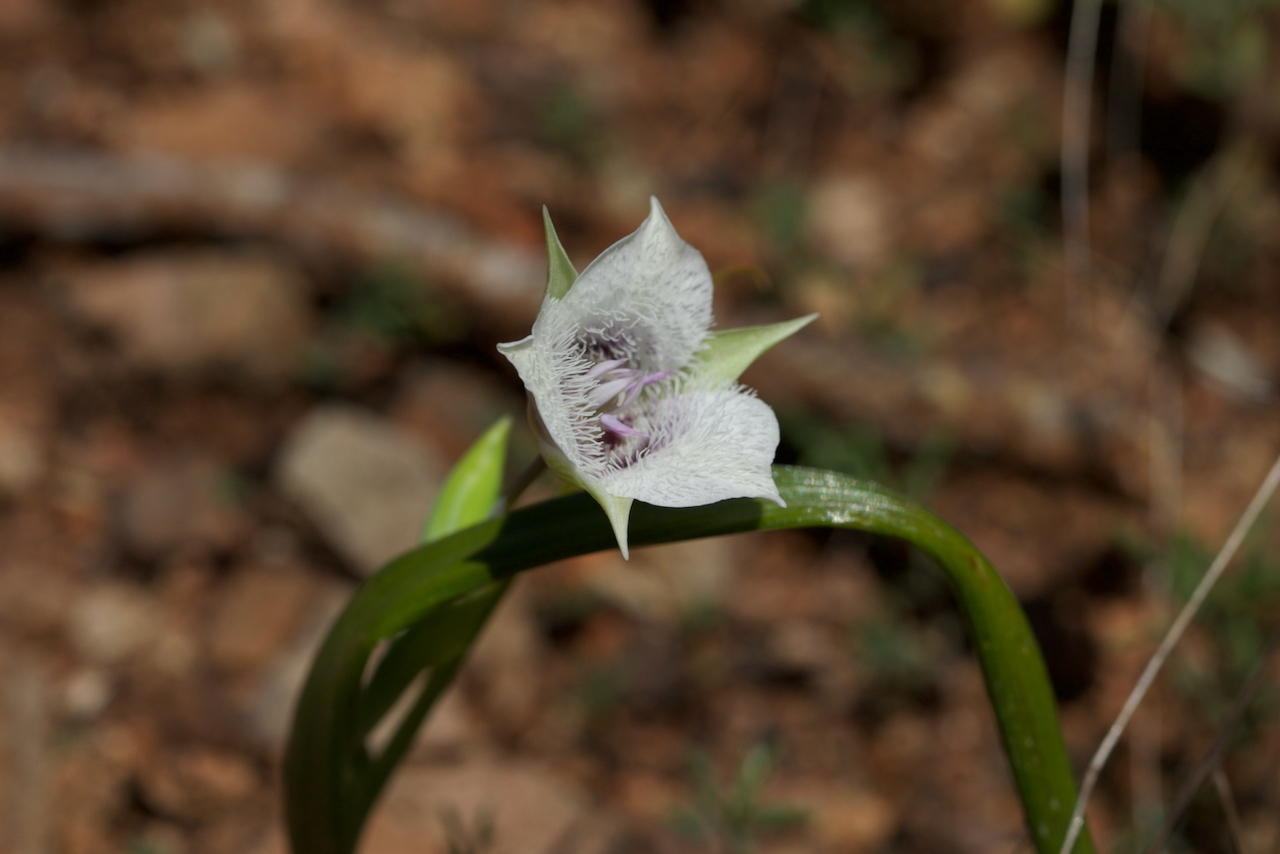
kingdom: Plantae
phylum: Tracheophyta
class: Liliopsida
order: Liliales
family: Liliaceae
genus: Calochortus
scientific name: Calochortus tolmiei
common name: Pussy-ears
